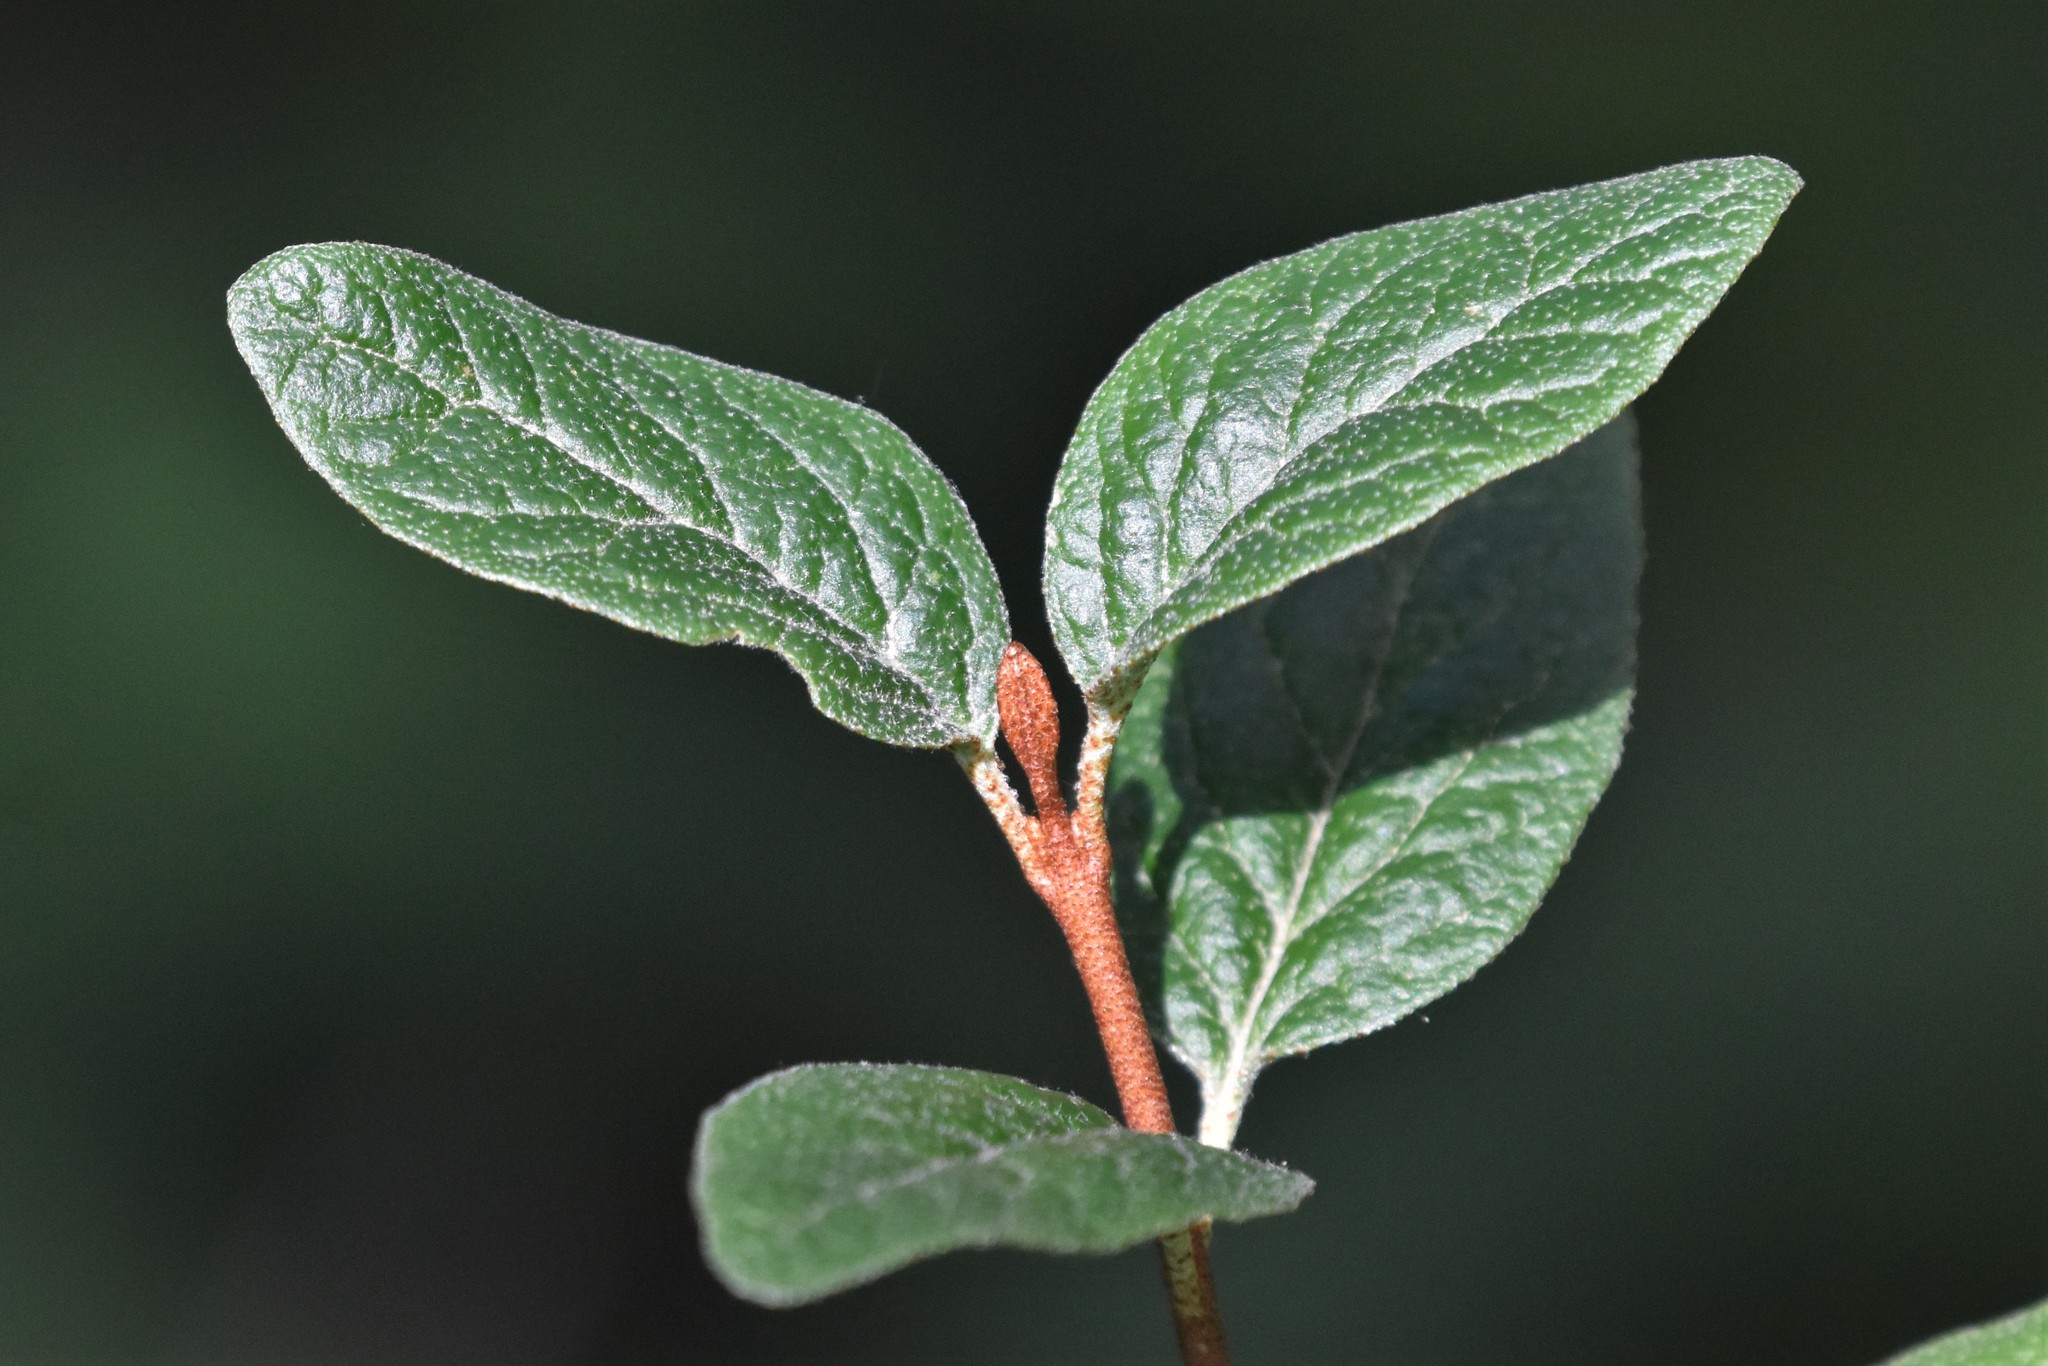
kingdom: Plantae
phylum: Tracheophyta
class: Magnoliopsida
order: Rosales
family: Elaeagnaceae
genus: Shepherdia
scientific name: Shepherdia canadensis
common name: Soapberry
